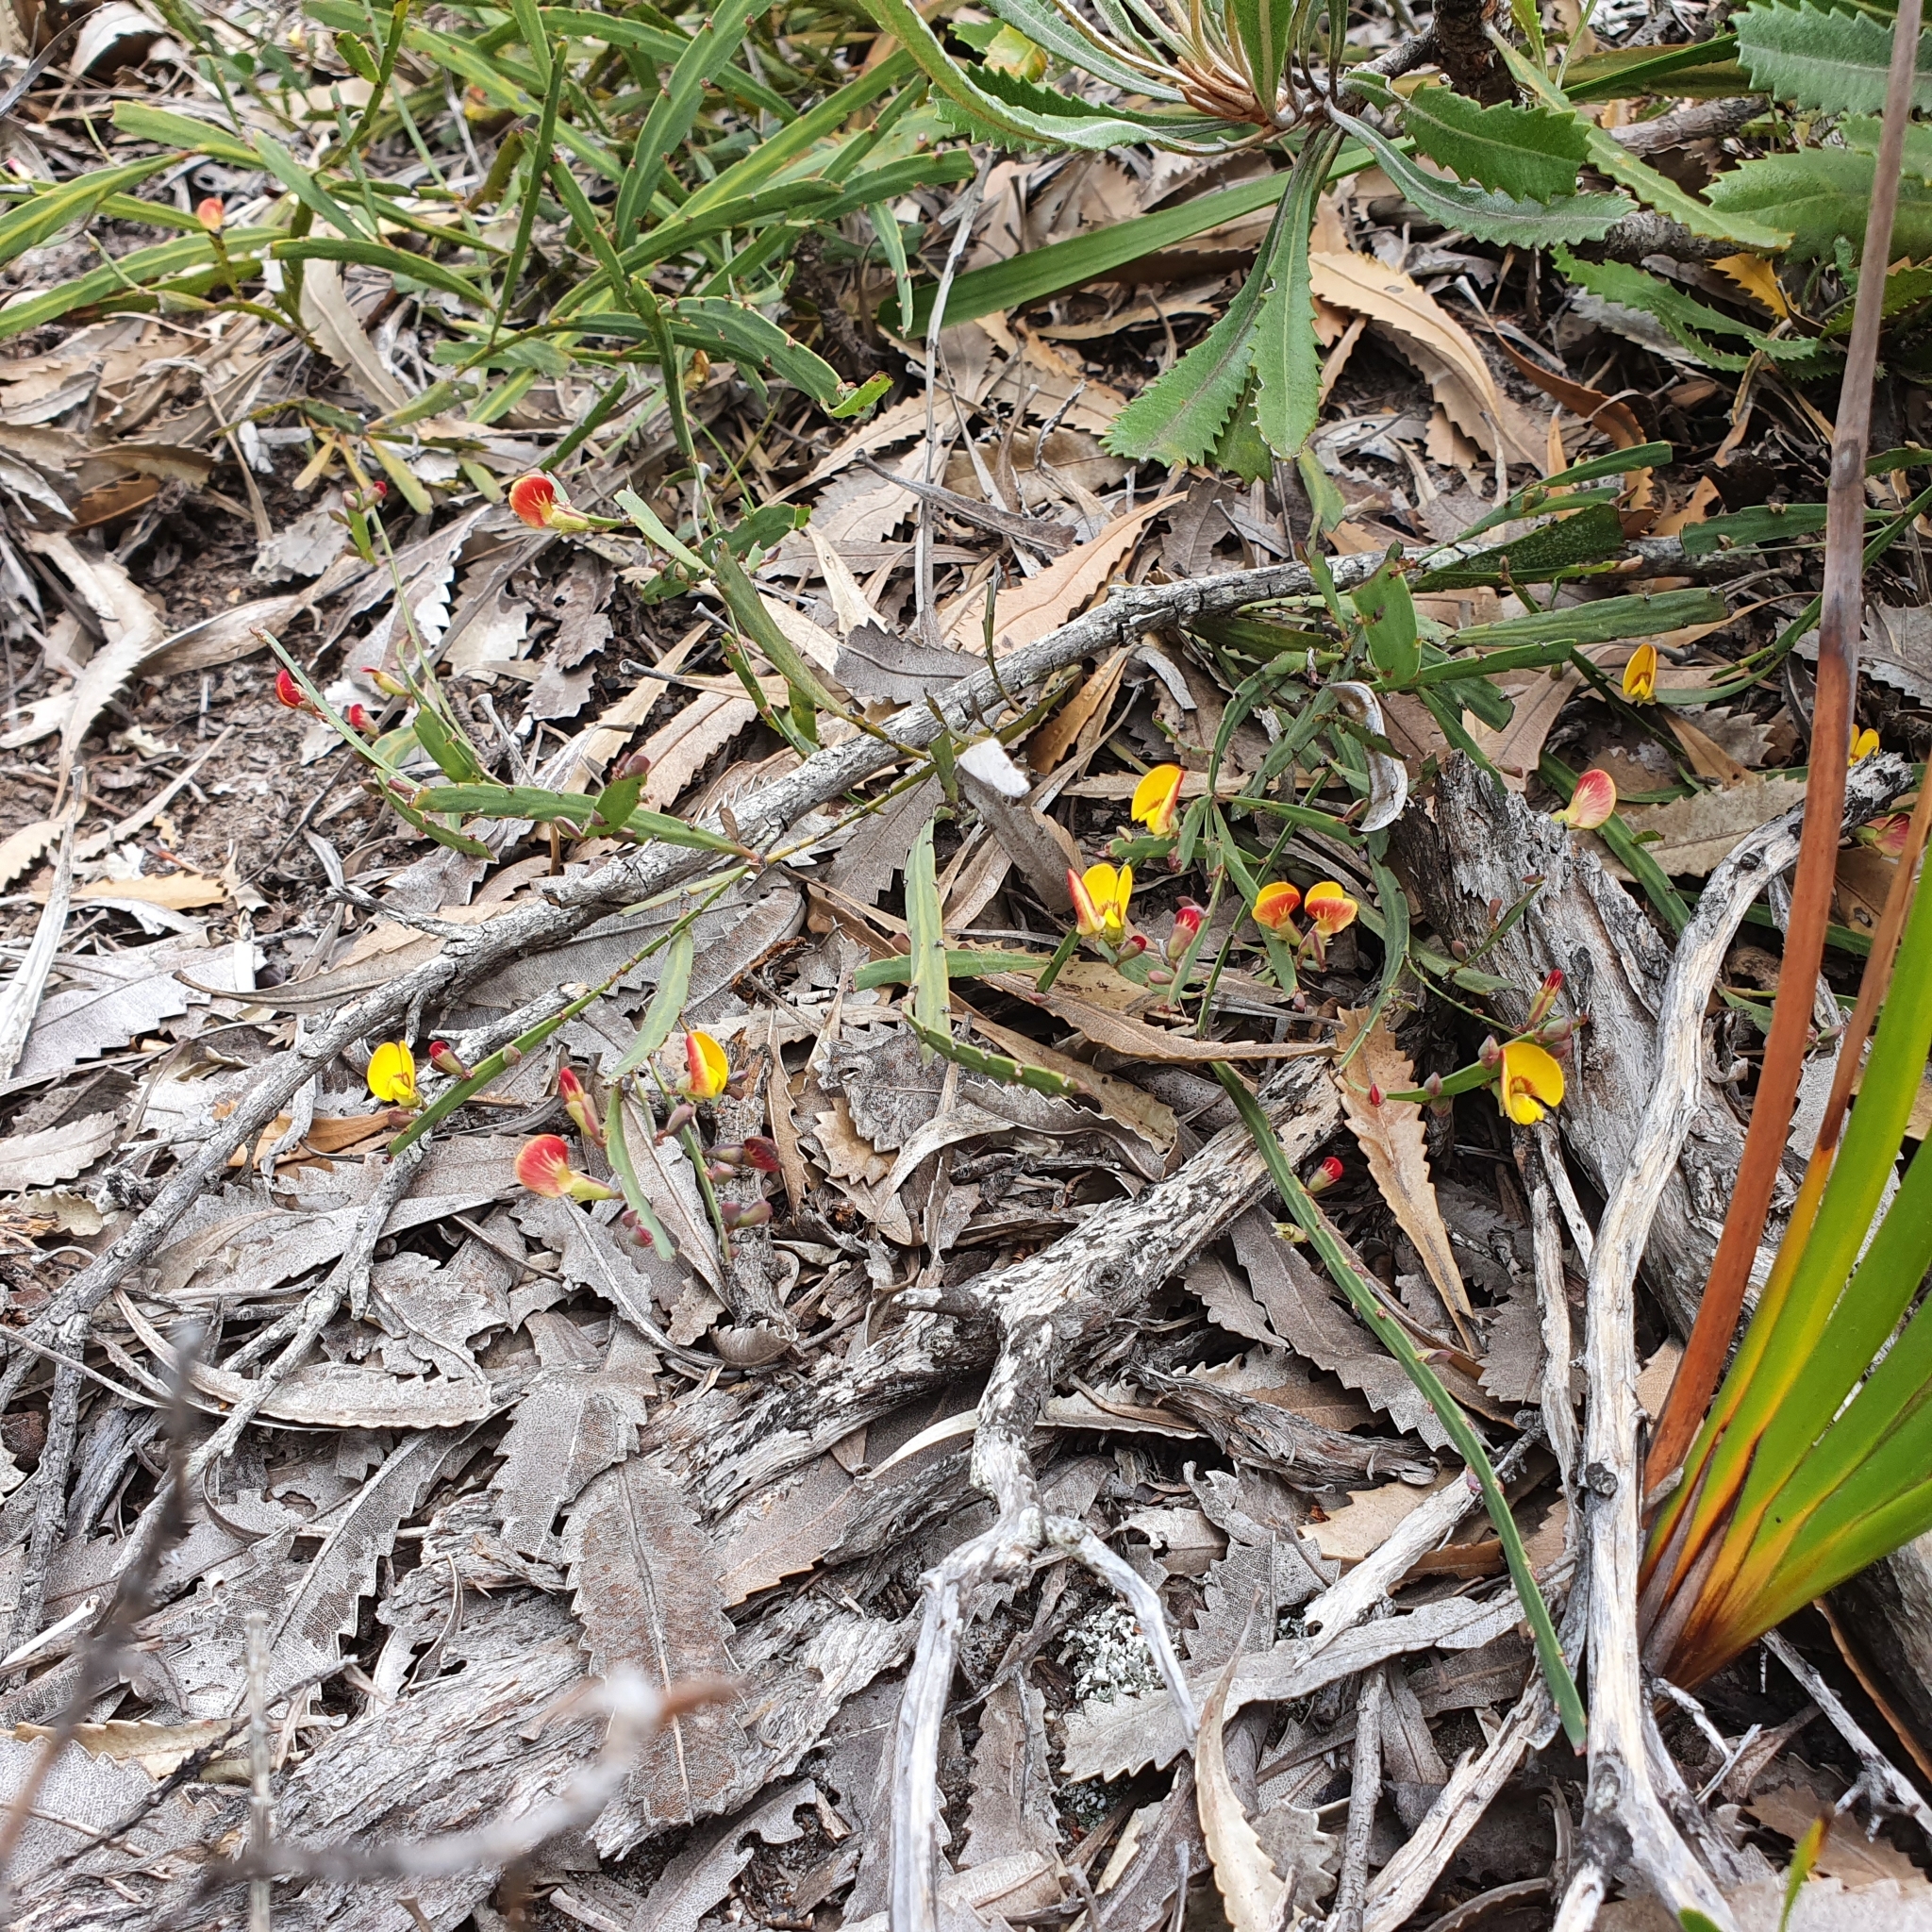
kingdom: Plantae
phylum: Tracheophyta
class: Magnoliopsida
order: Fabales
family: Fabaceae
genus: Bossiaea
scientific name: Bossiaea scolopendria
